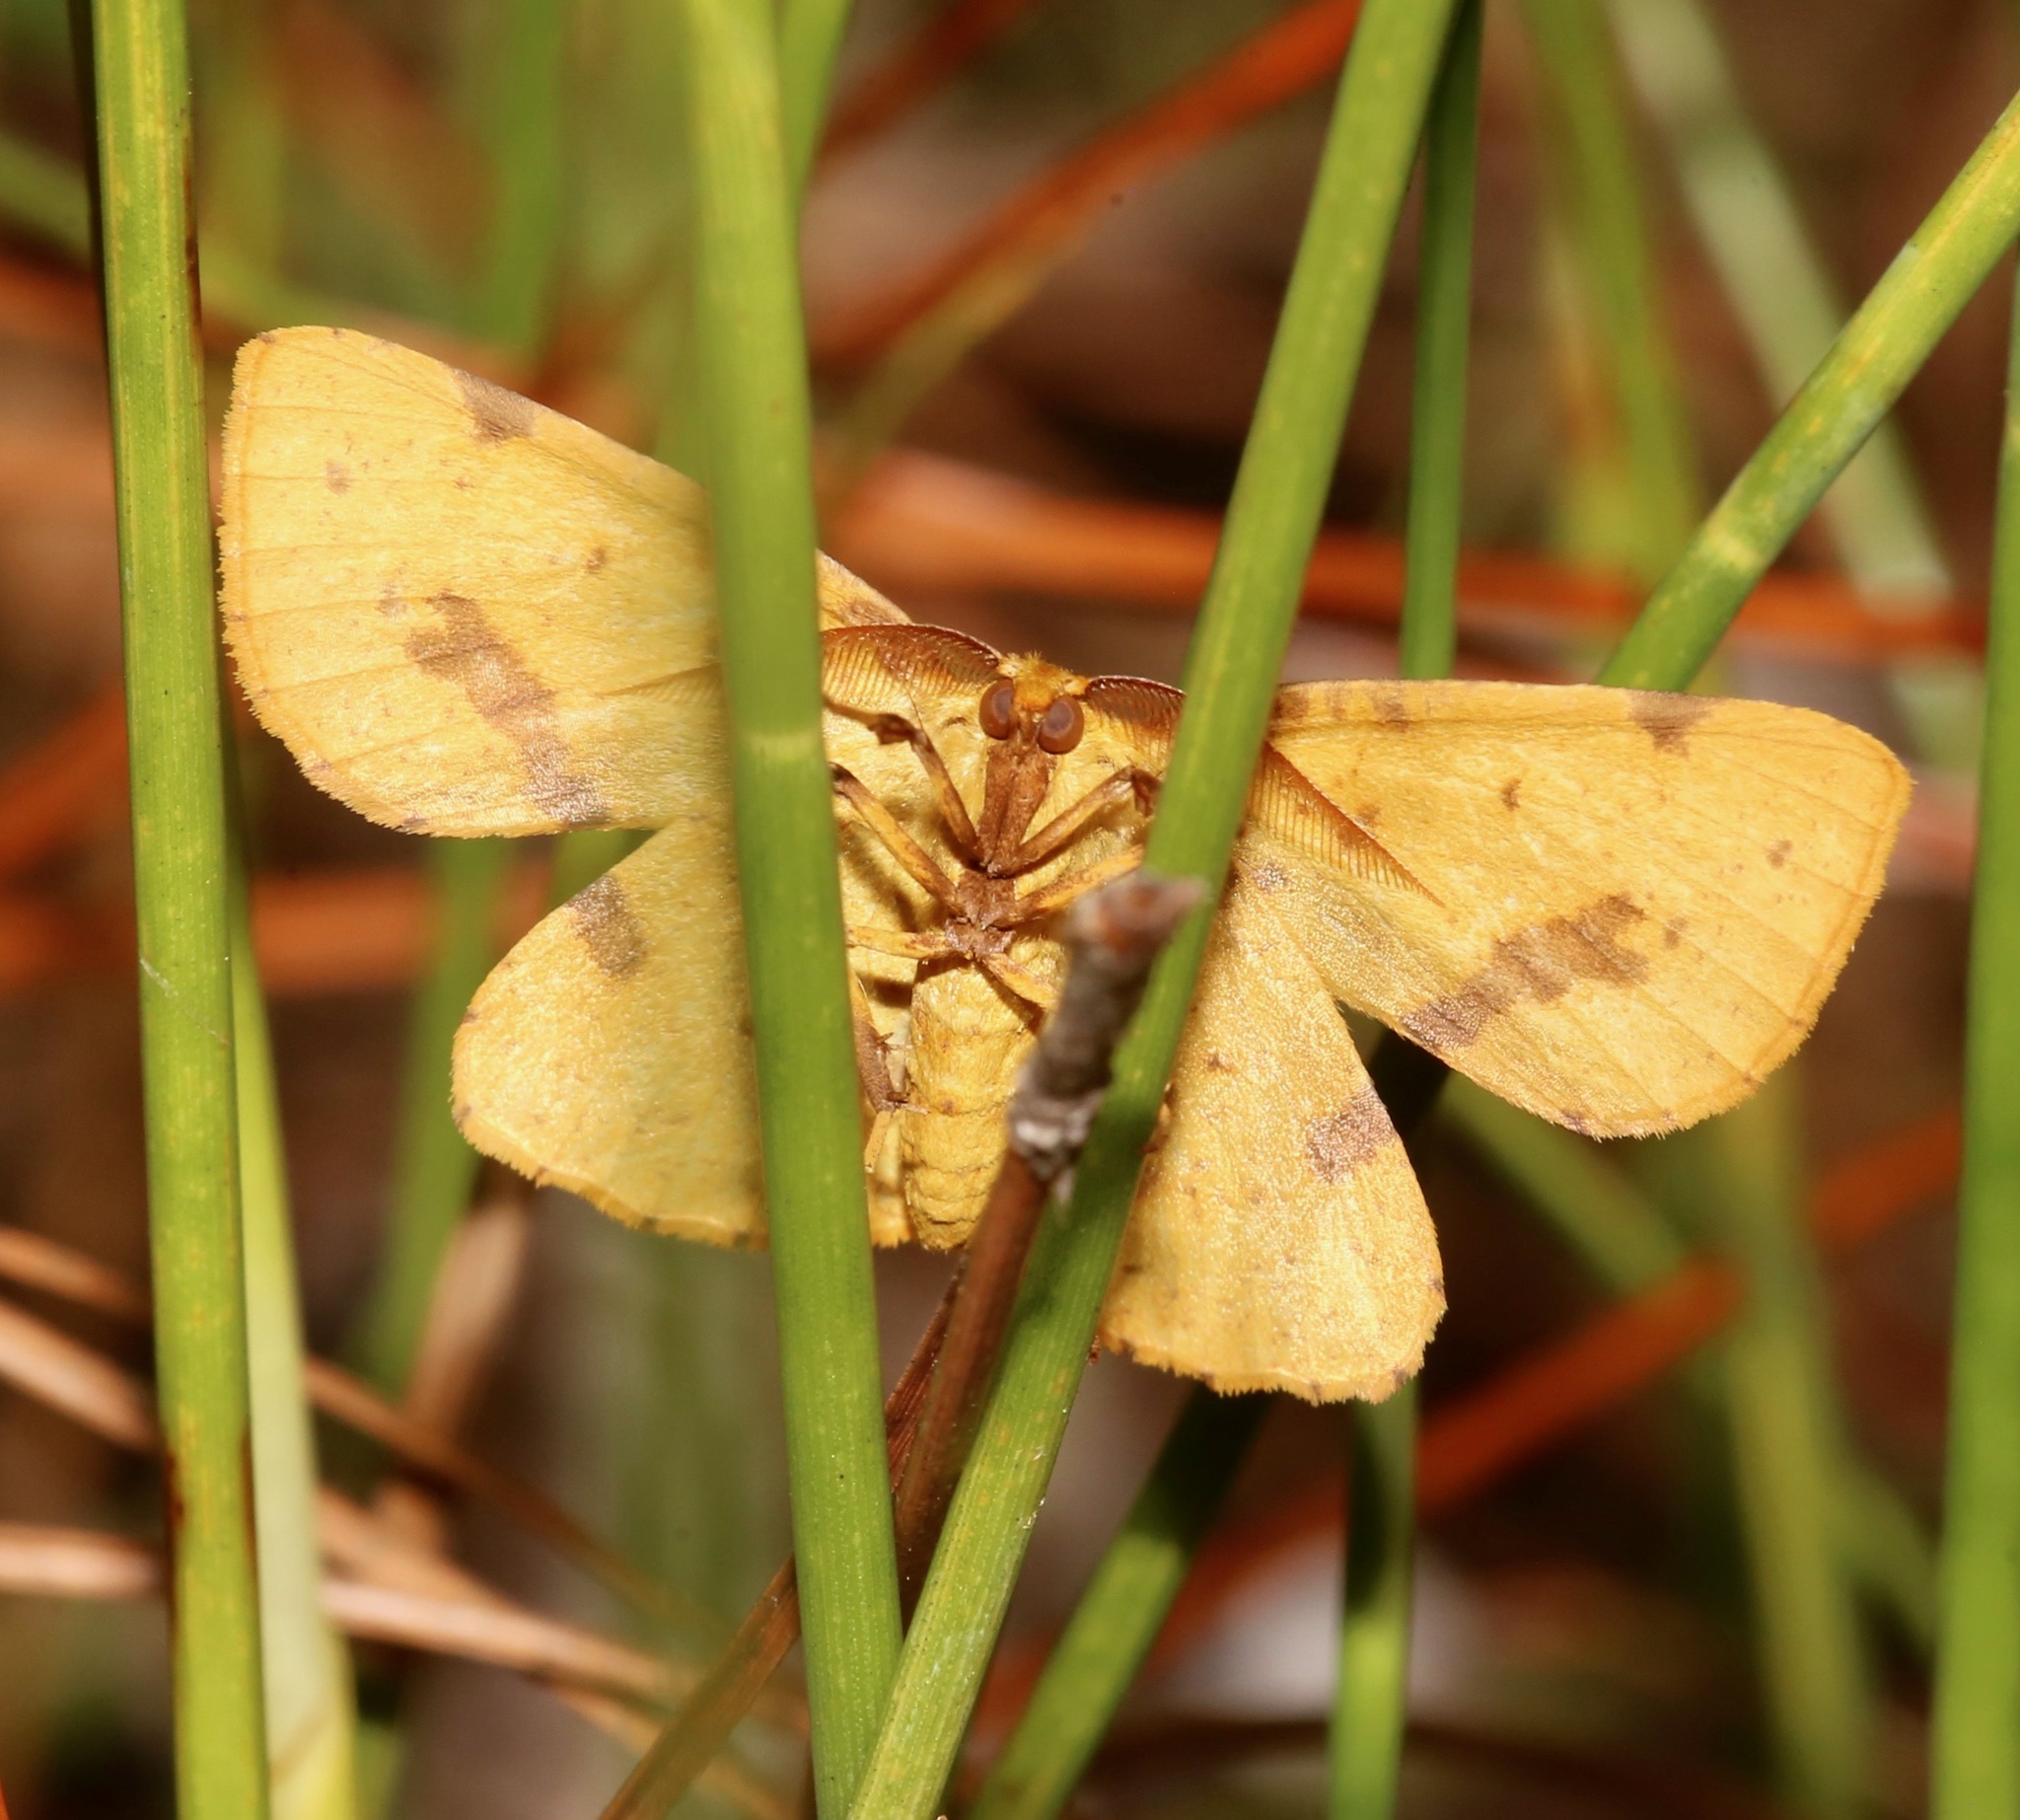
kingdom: Animalia
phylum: Arthropoda
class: Insecta
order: Lepidoptera
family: Geometridae
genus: Xanthotype
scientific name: Xanthotype
